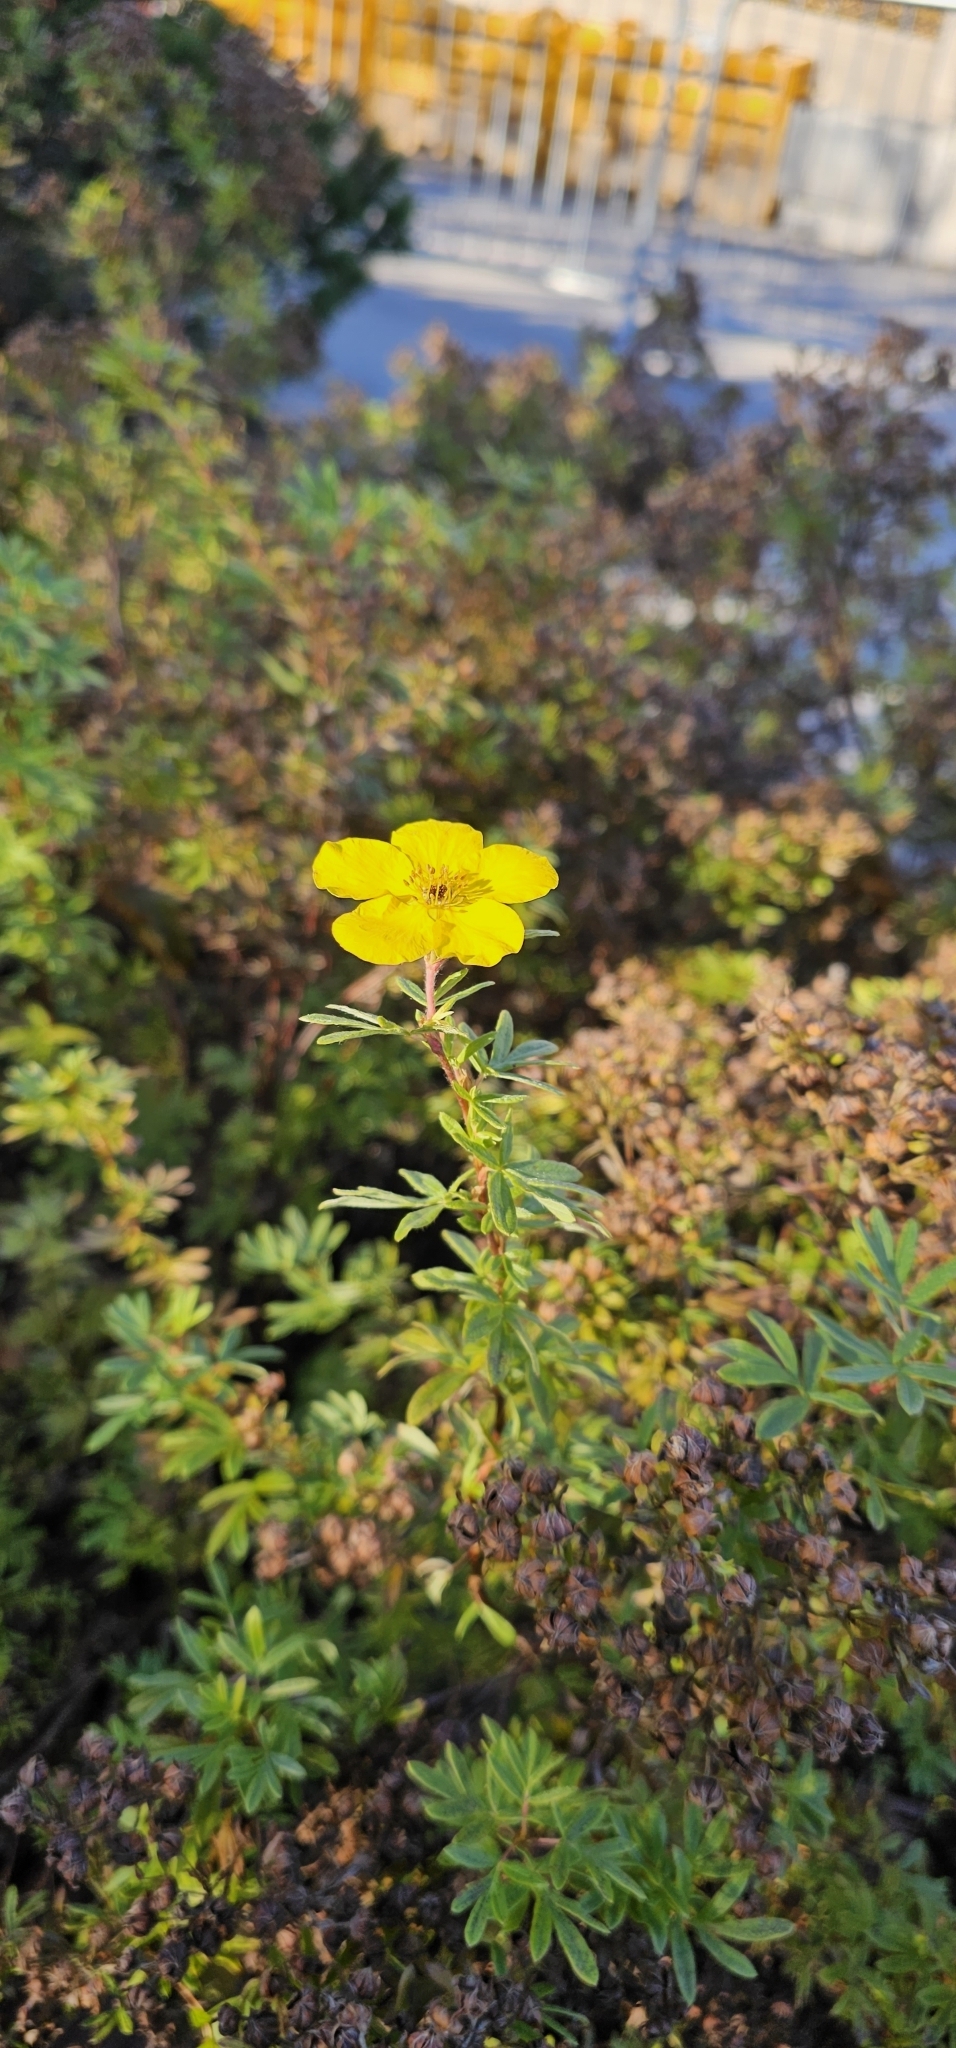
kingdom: Plantae
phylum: Tracheophyta
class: Magnoliopsida
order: Rosales
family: Rosaceae
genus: Dasiphora
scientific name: Dasiphora fruticosa
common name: Shrubby cinquefoil
